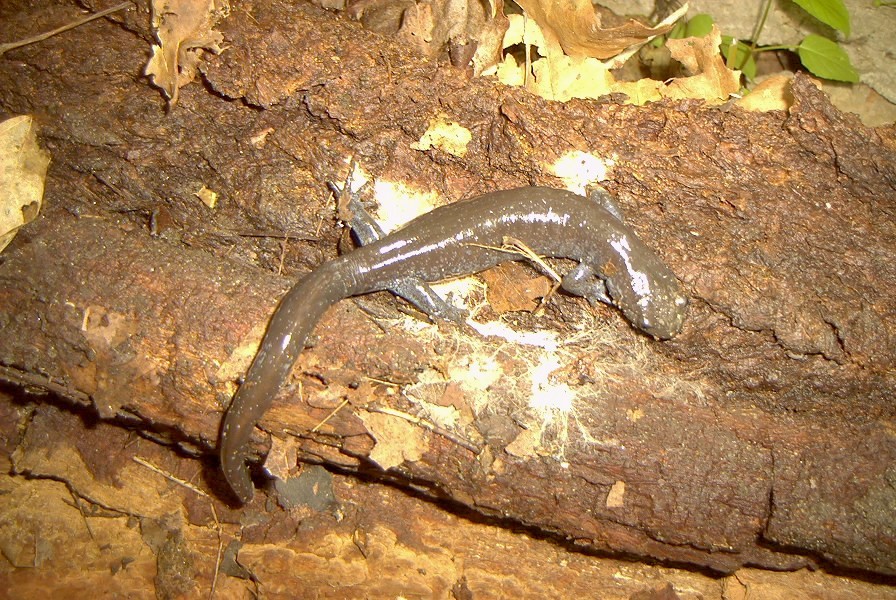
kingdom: Animalia
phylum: Chordata
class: Amphibia
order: Caudata
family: Ambystomatidae
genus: Ambystoma
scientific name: Ambystoma jeffersonianum
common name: Jefferson salamander
